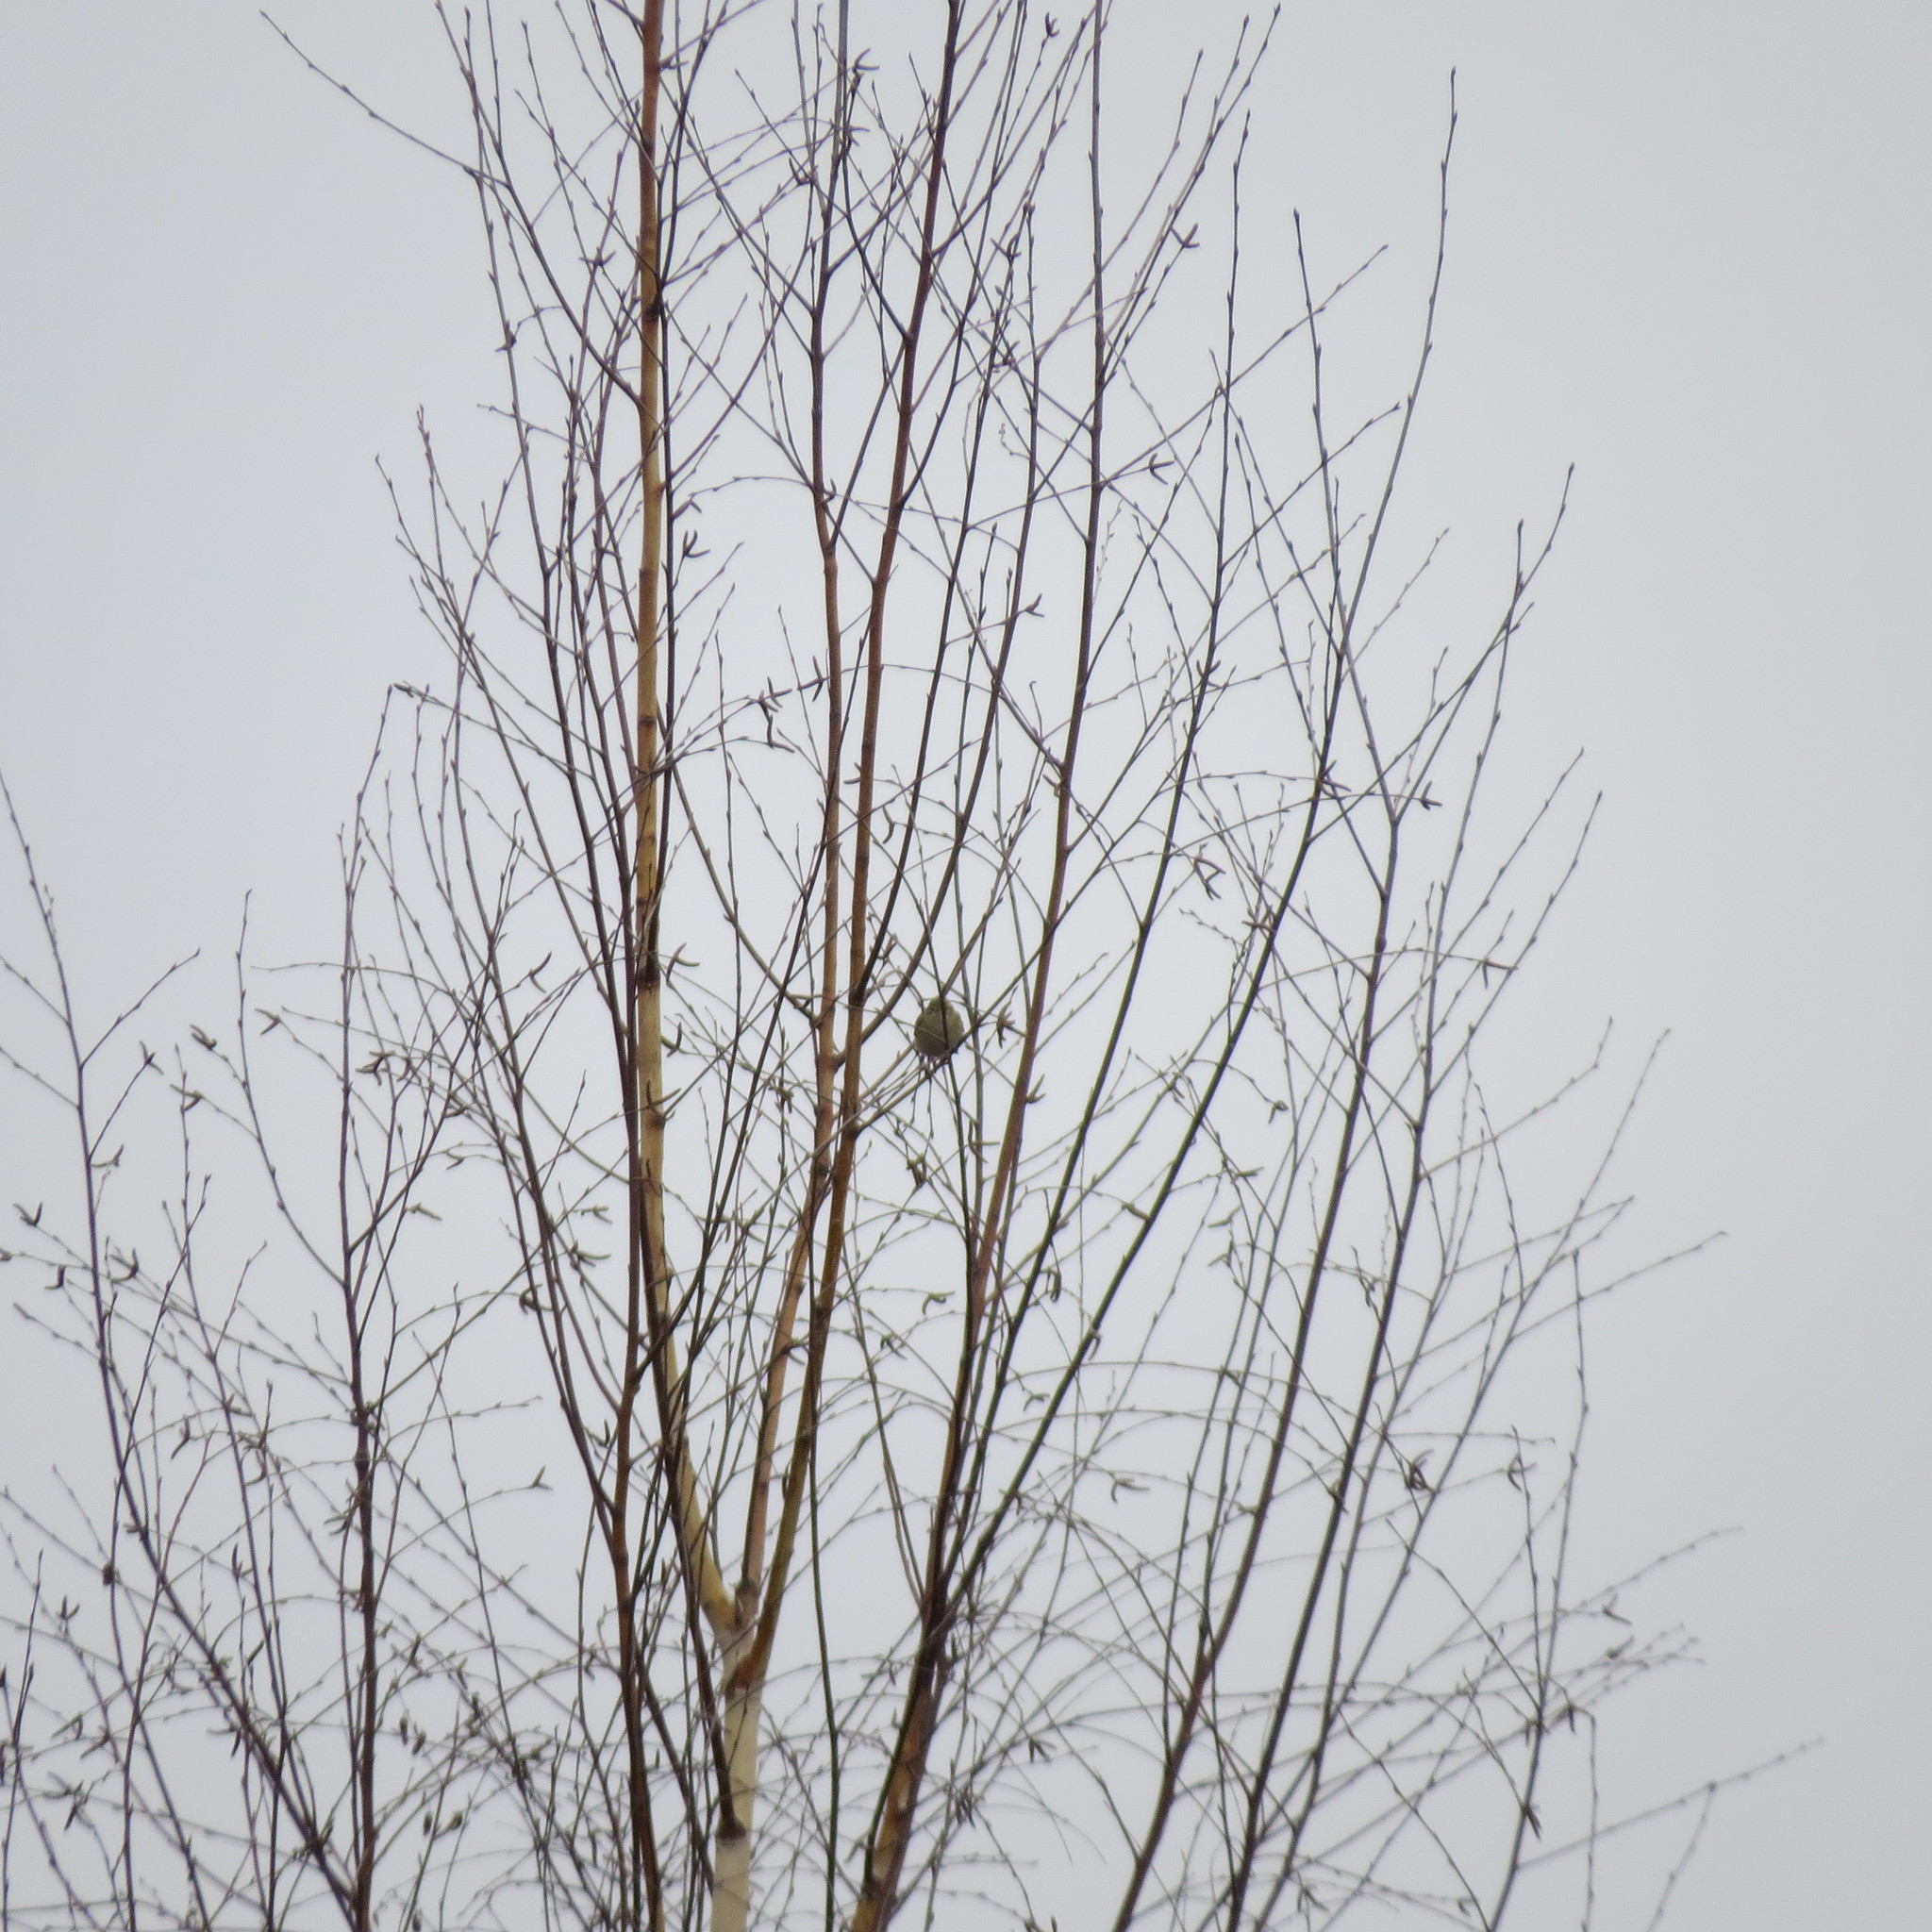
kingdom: Animalia
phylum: Chordata
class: Aves
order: Passeriformes
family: Phylloscopidae
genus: Phylloscopus
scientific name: Phylloscopus
